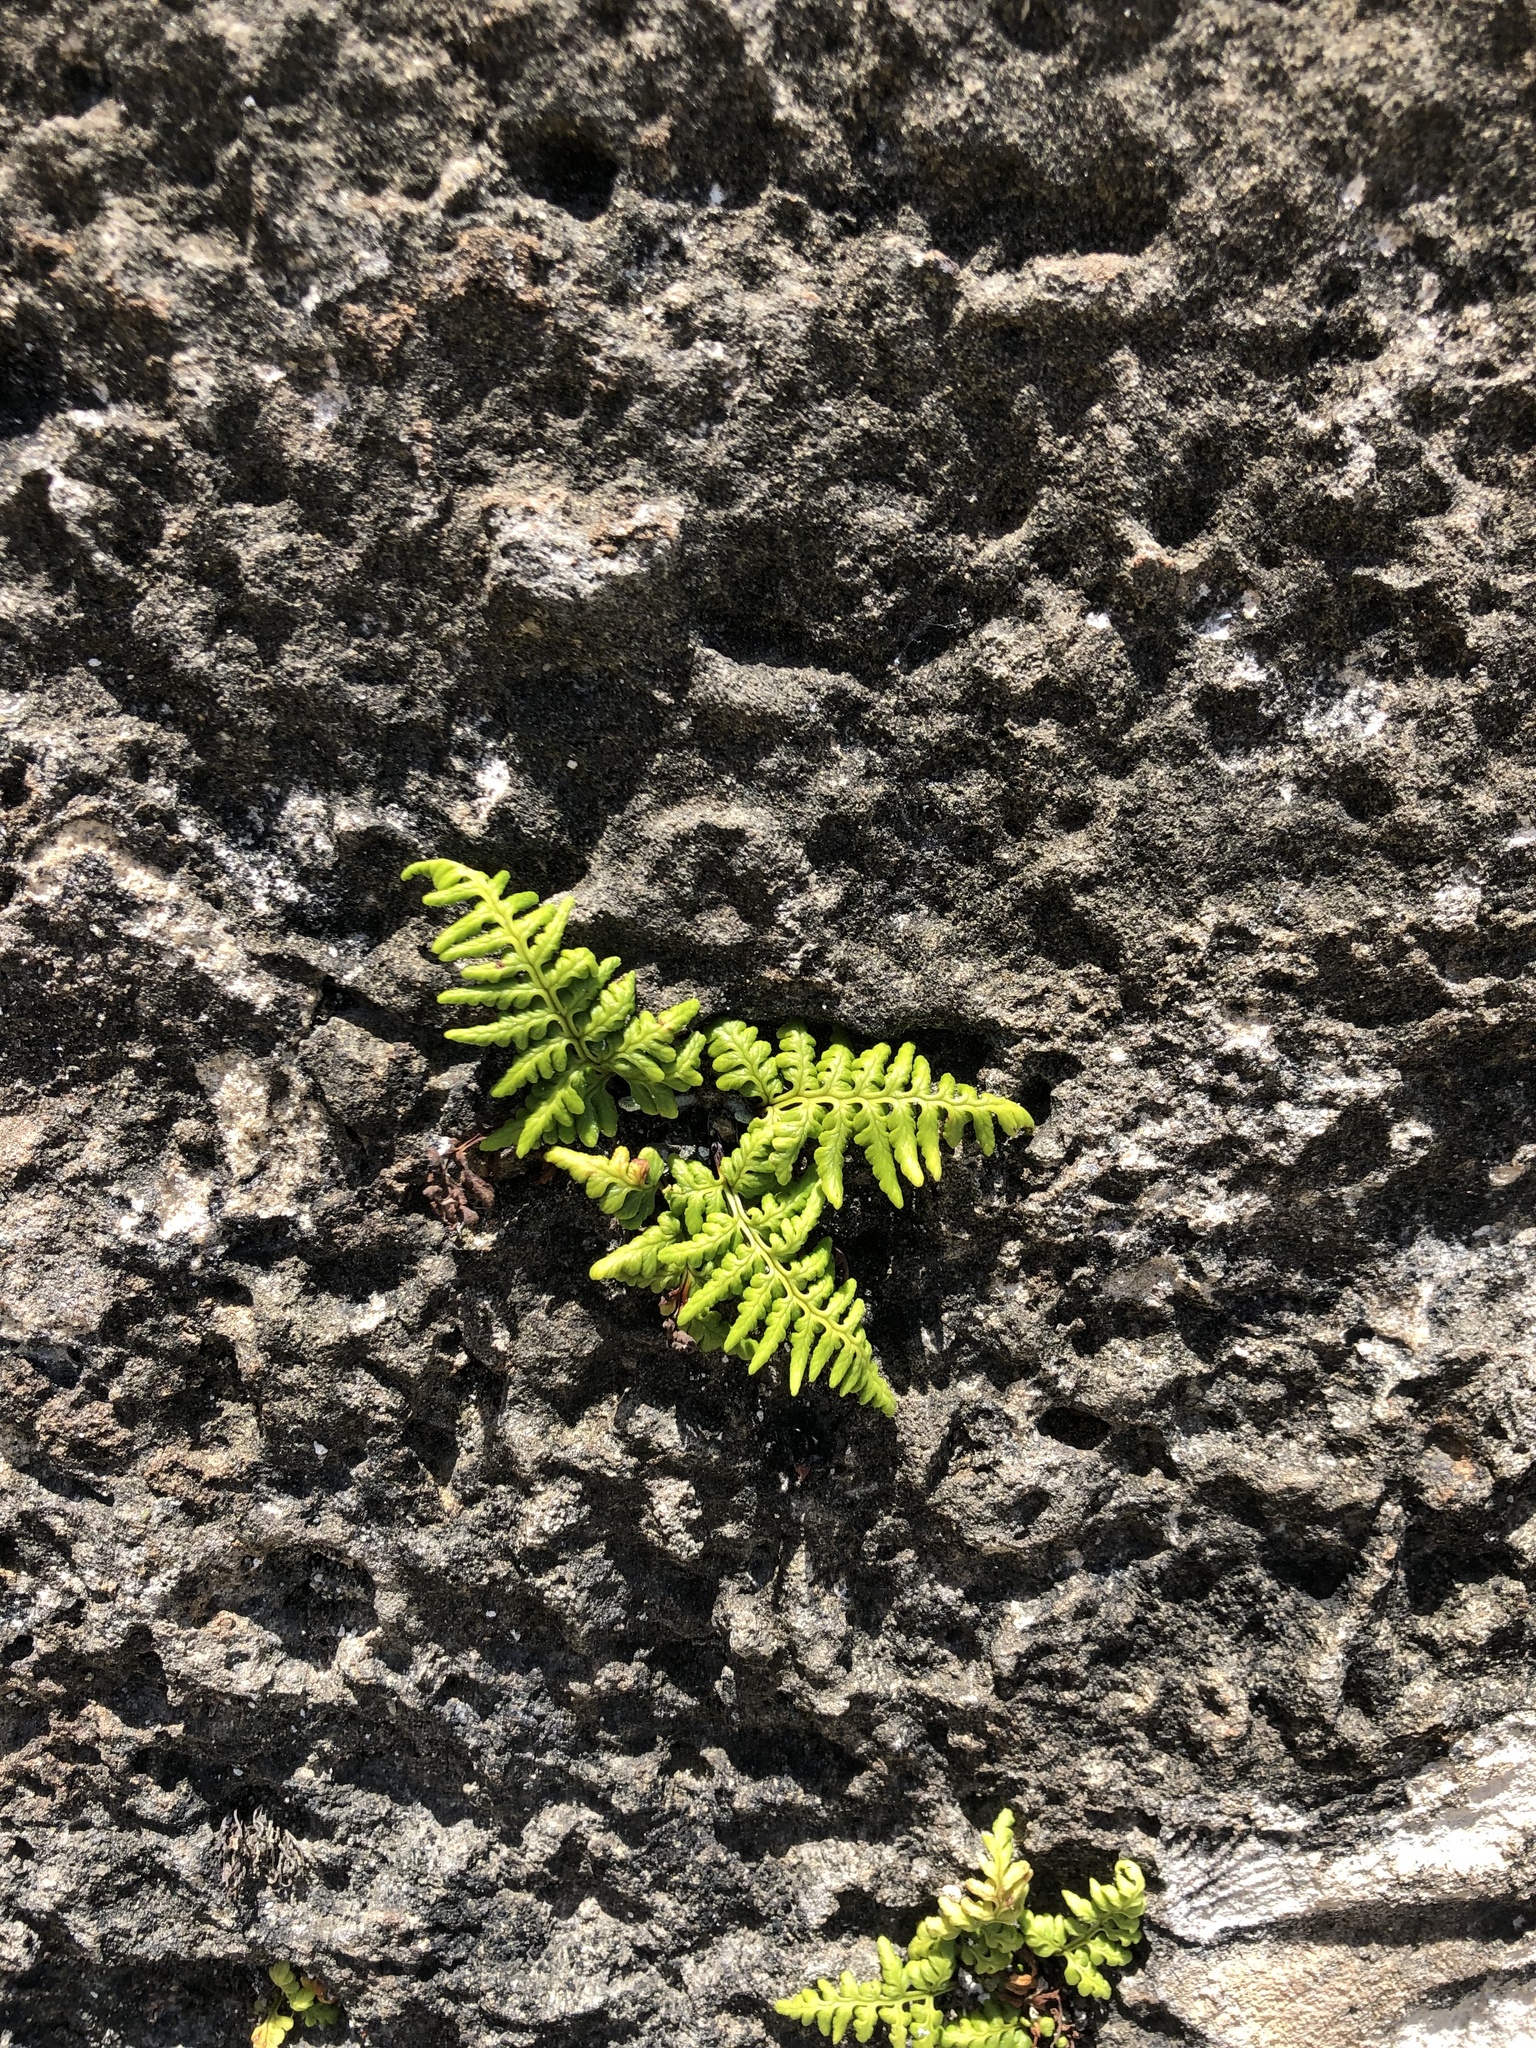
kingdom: Plantae
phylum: Tracheophyta
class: Polypodiopsida
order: Polypodiales
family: Pteridaceae
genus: Pityrogramma
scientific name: Pityrogramma chrysophylla
